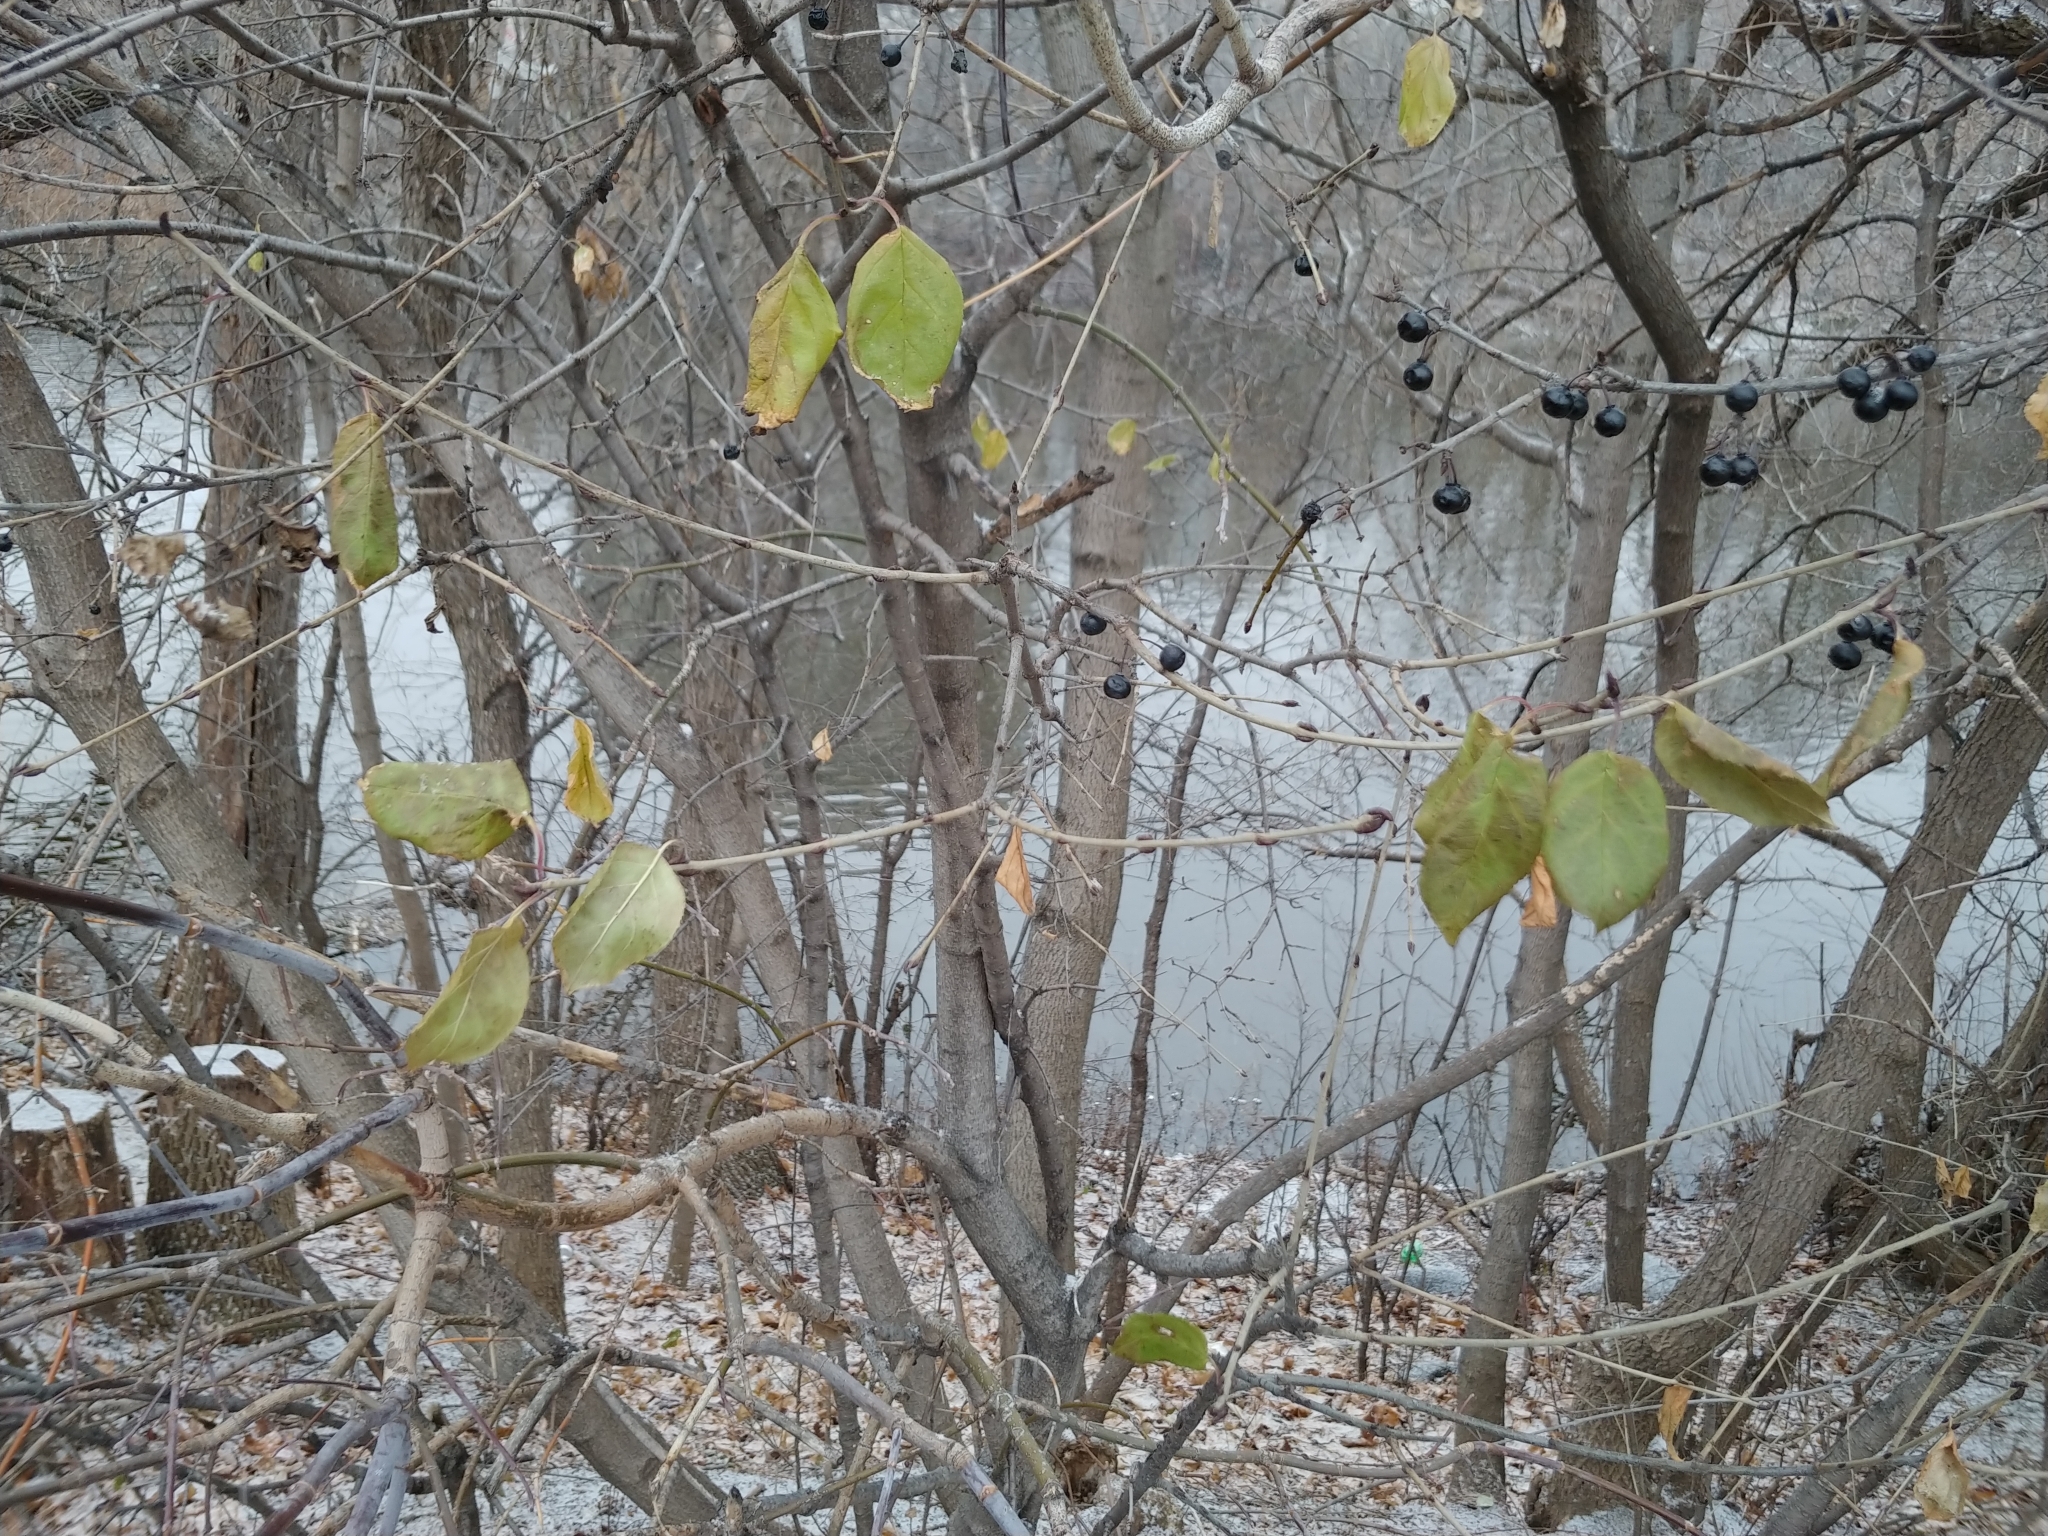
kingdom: Plantae
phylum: Tracheophyta
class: Magnoliopsida
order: Rosales
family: Rhamnaceae
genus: Rhamnus
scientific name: Rhamnus cathartica
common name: Common buckthorn
